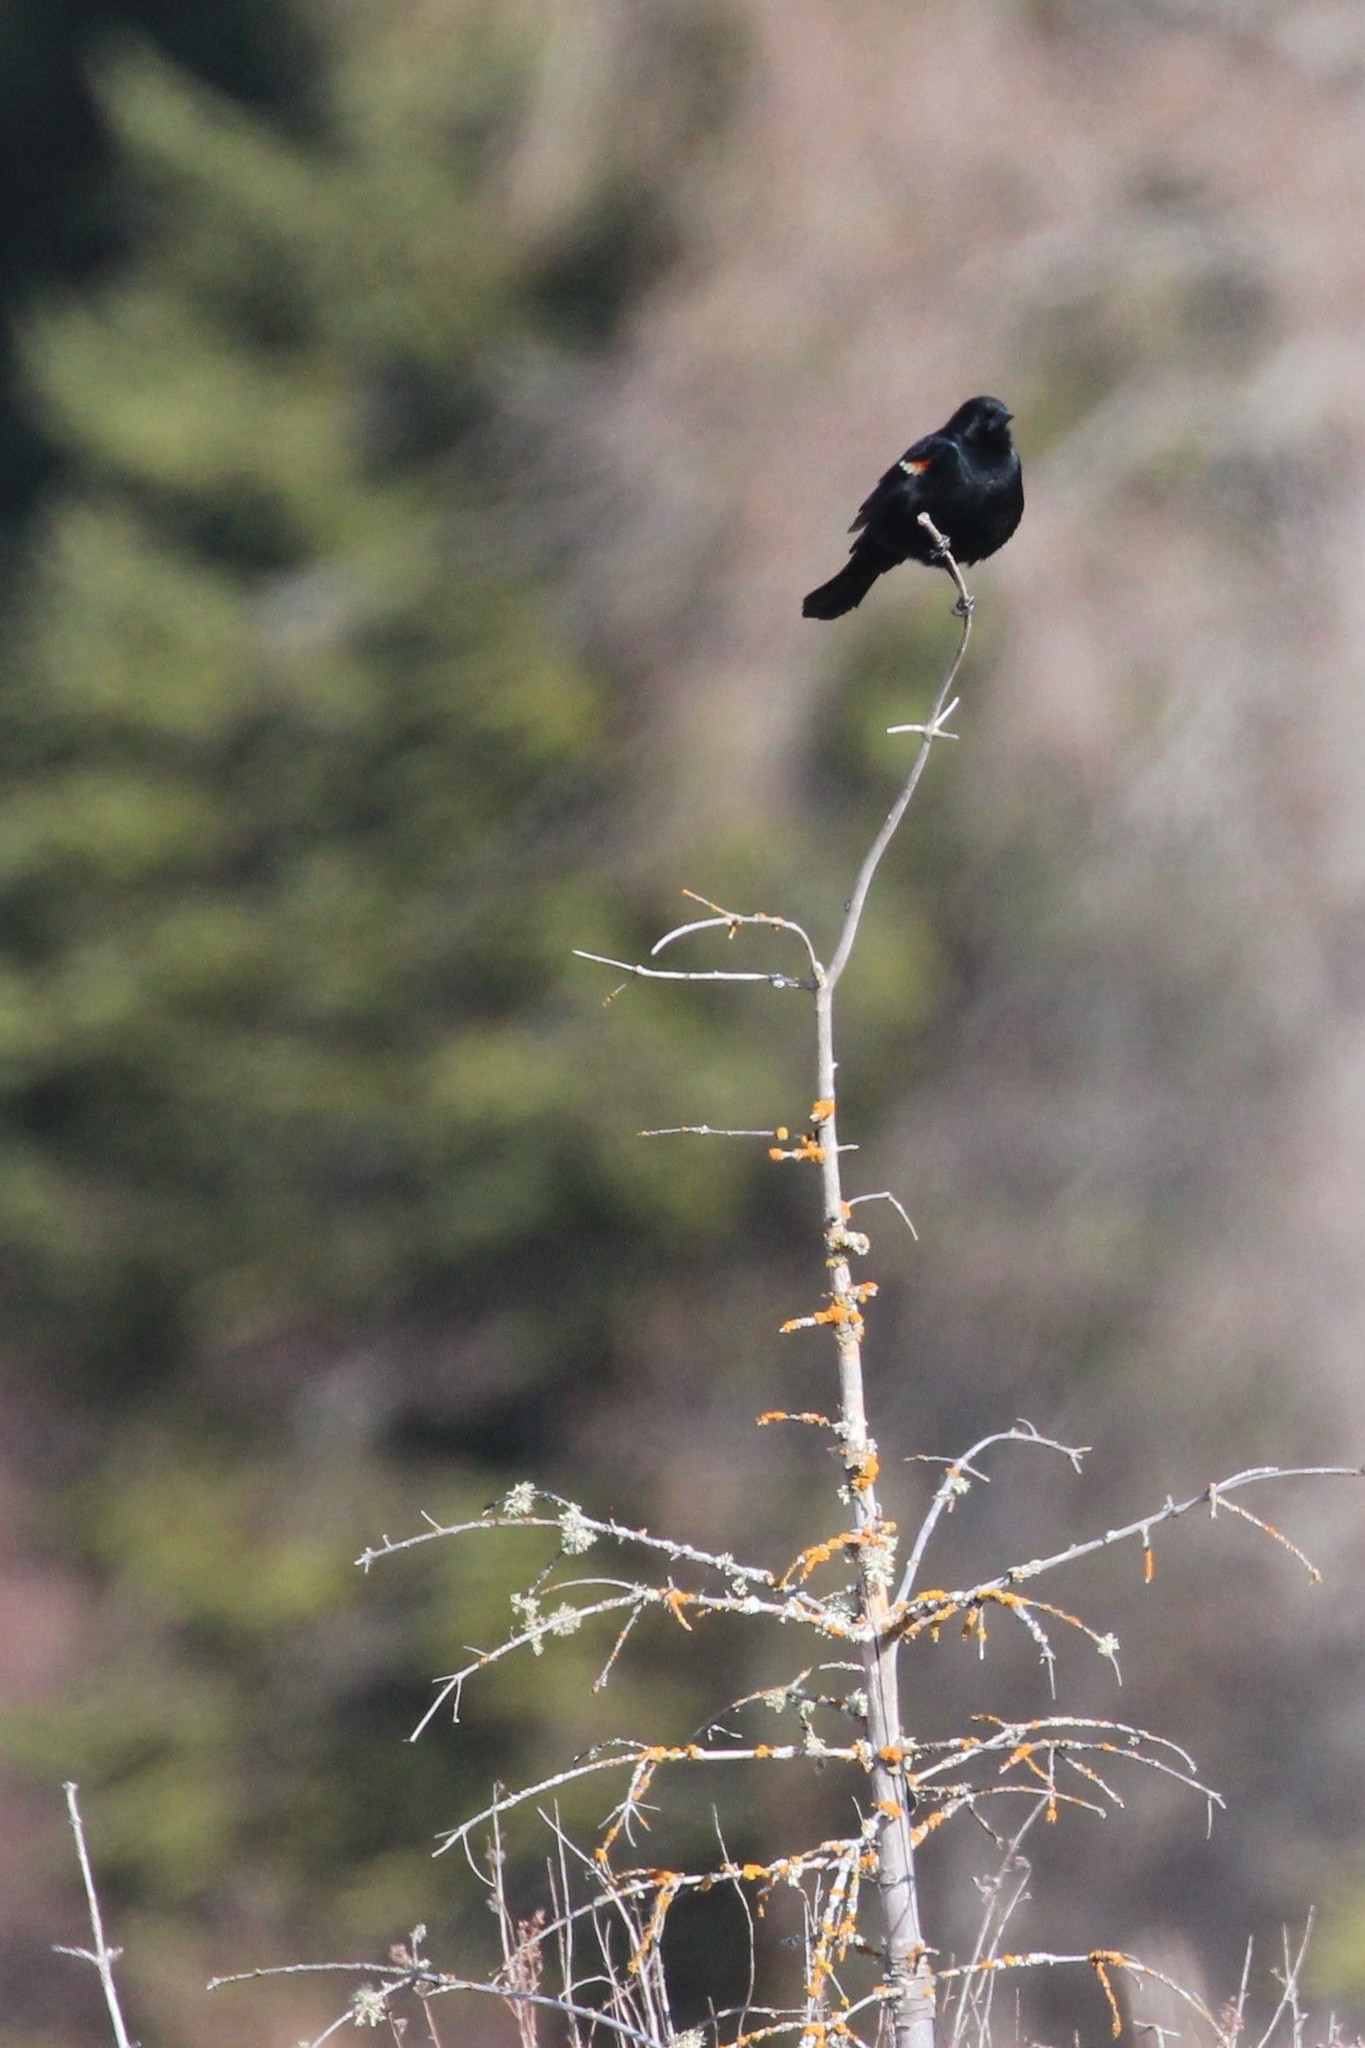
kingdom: Animalia
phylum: Chordata
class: Aves
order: Passeriformes
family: Icteridae
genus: Agelaius
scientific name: Agelaius phoeniceus
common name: Red-winged blackbird
